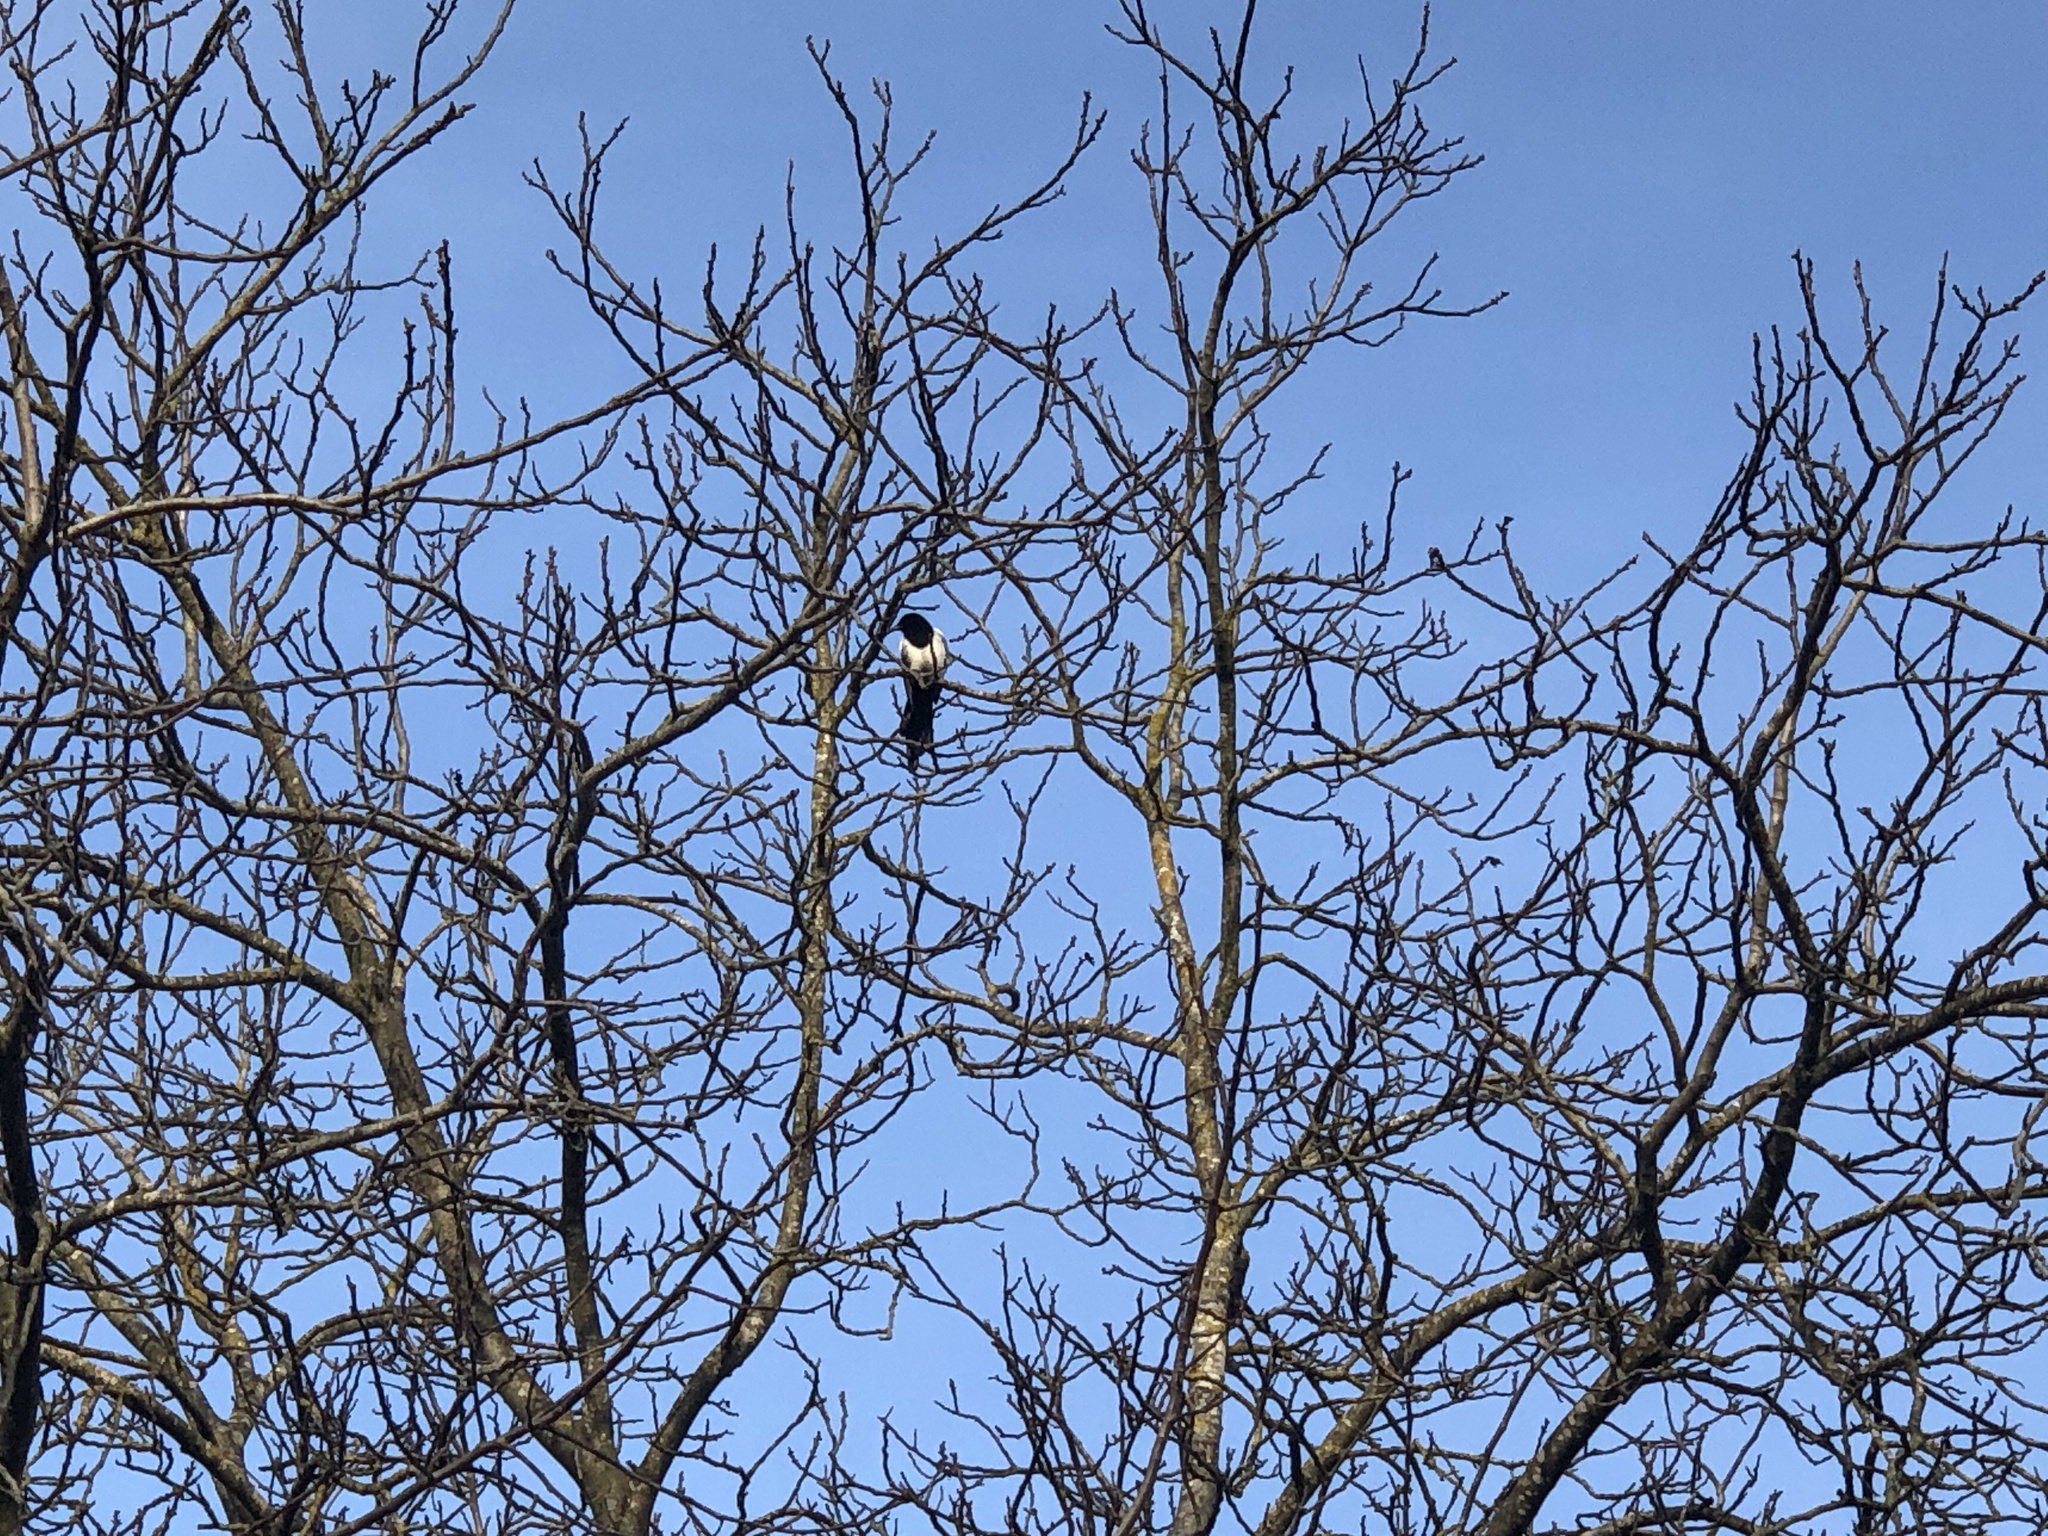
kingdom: Animalia
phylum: Chordata
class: Aves
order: Passeriformes
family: Corvidae
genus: Pica
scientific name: Pica pica
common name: Eurasian magpie
